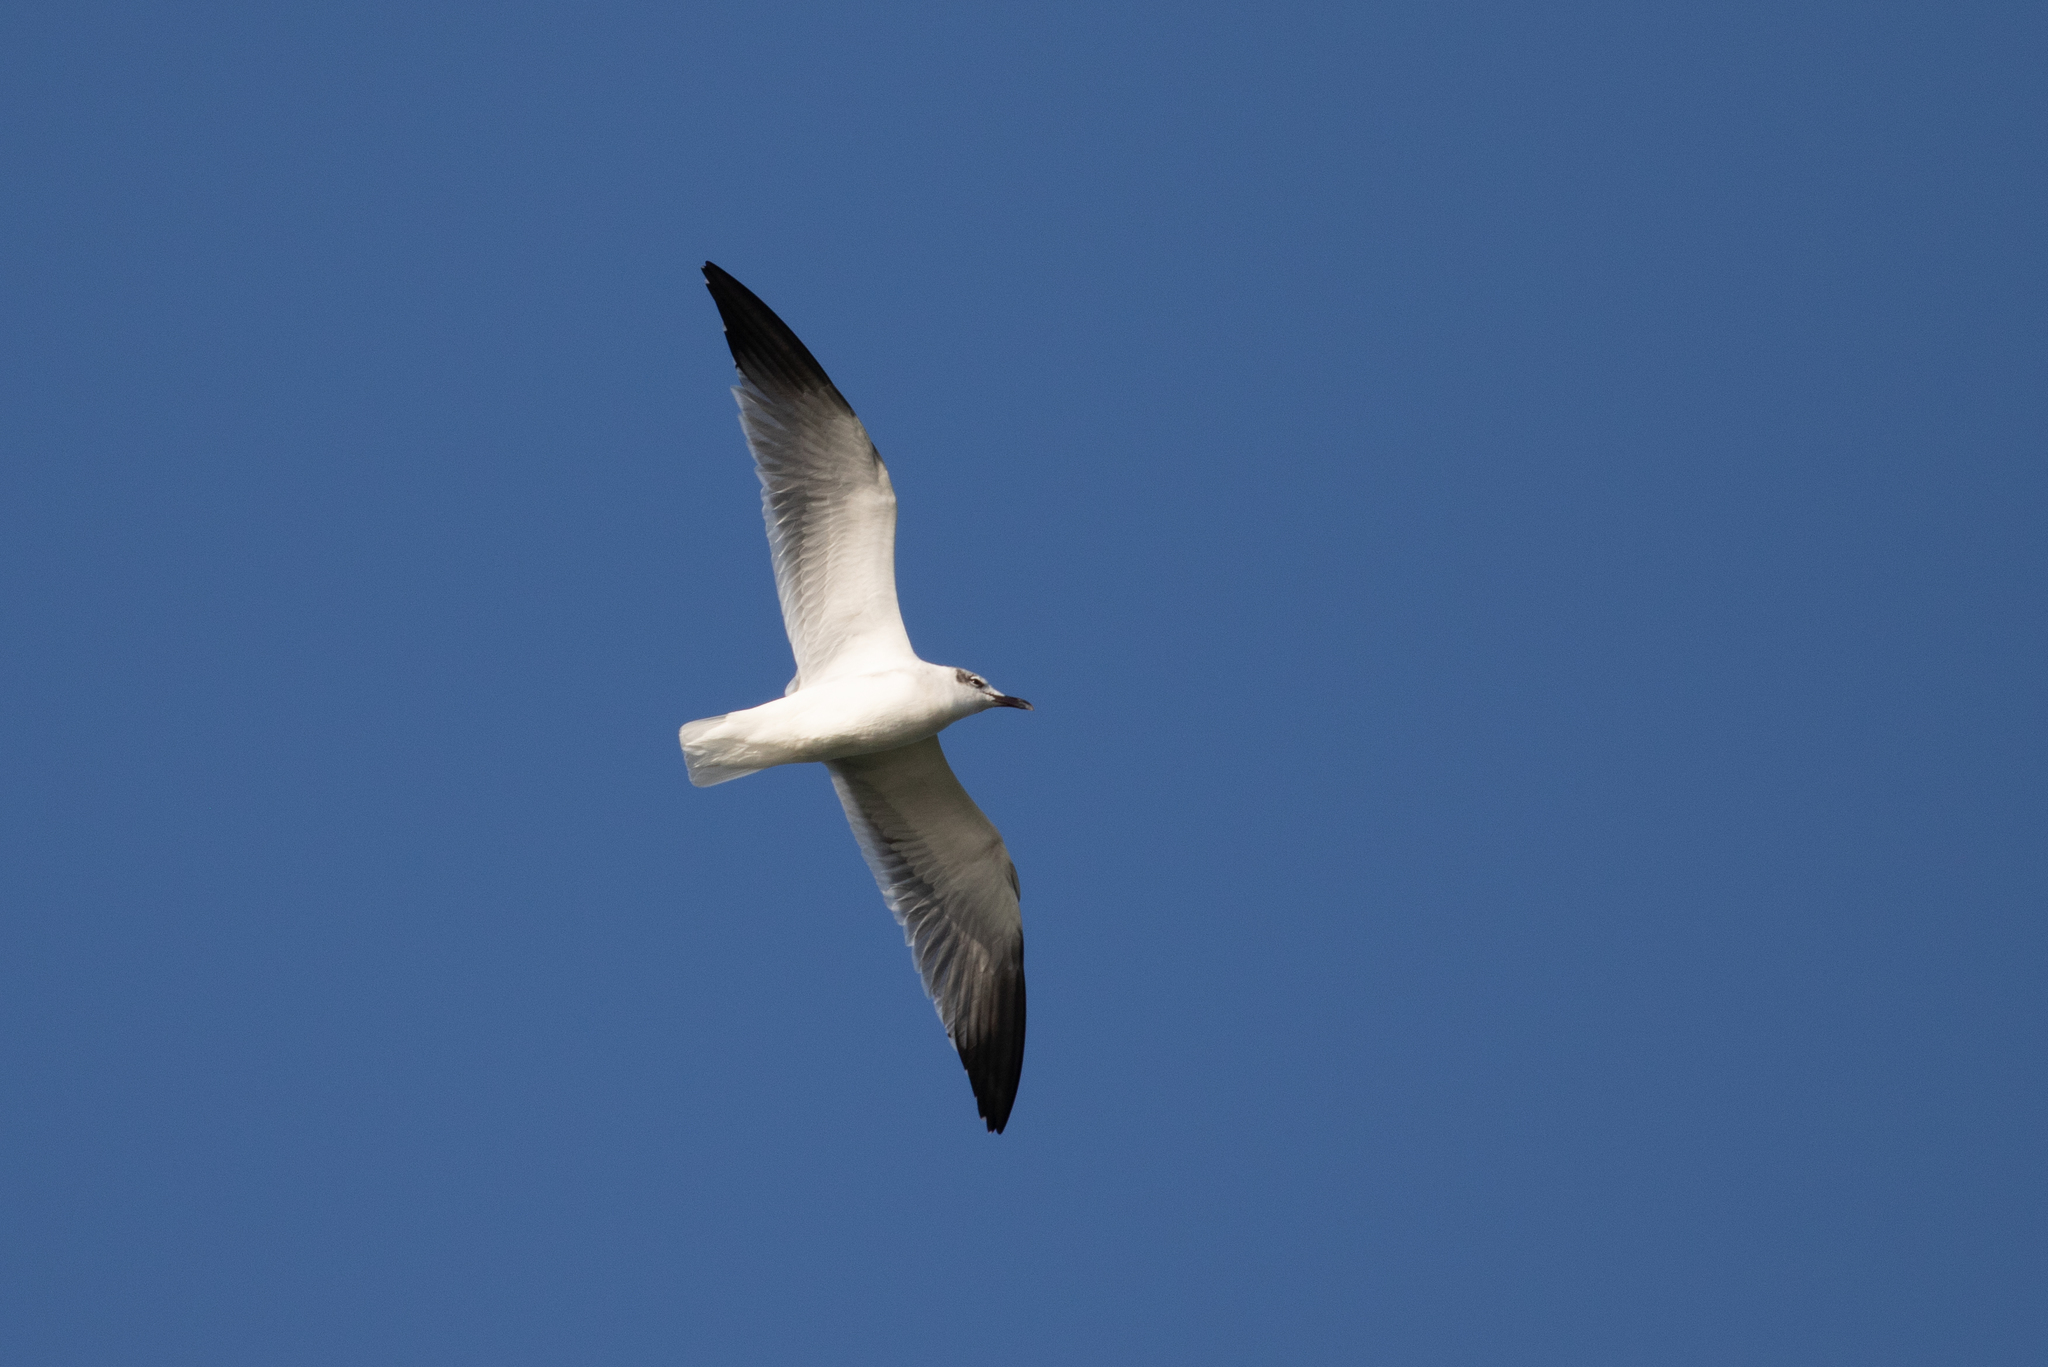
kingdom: Animalia
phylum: Chordata
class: Aves
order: Charadriiformes
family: Laridae
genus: Leucophaeus
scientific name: Leucophaeus atricilla
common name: Laughing gull
